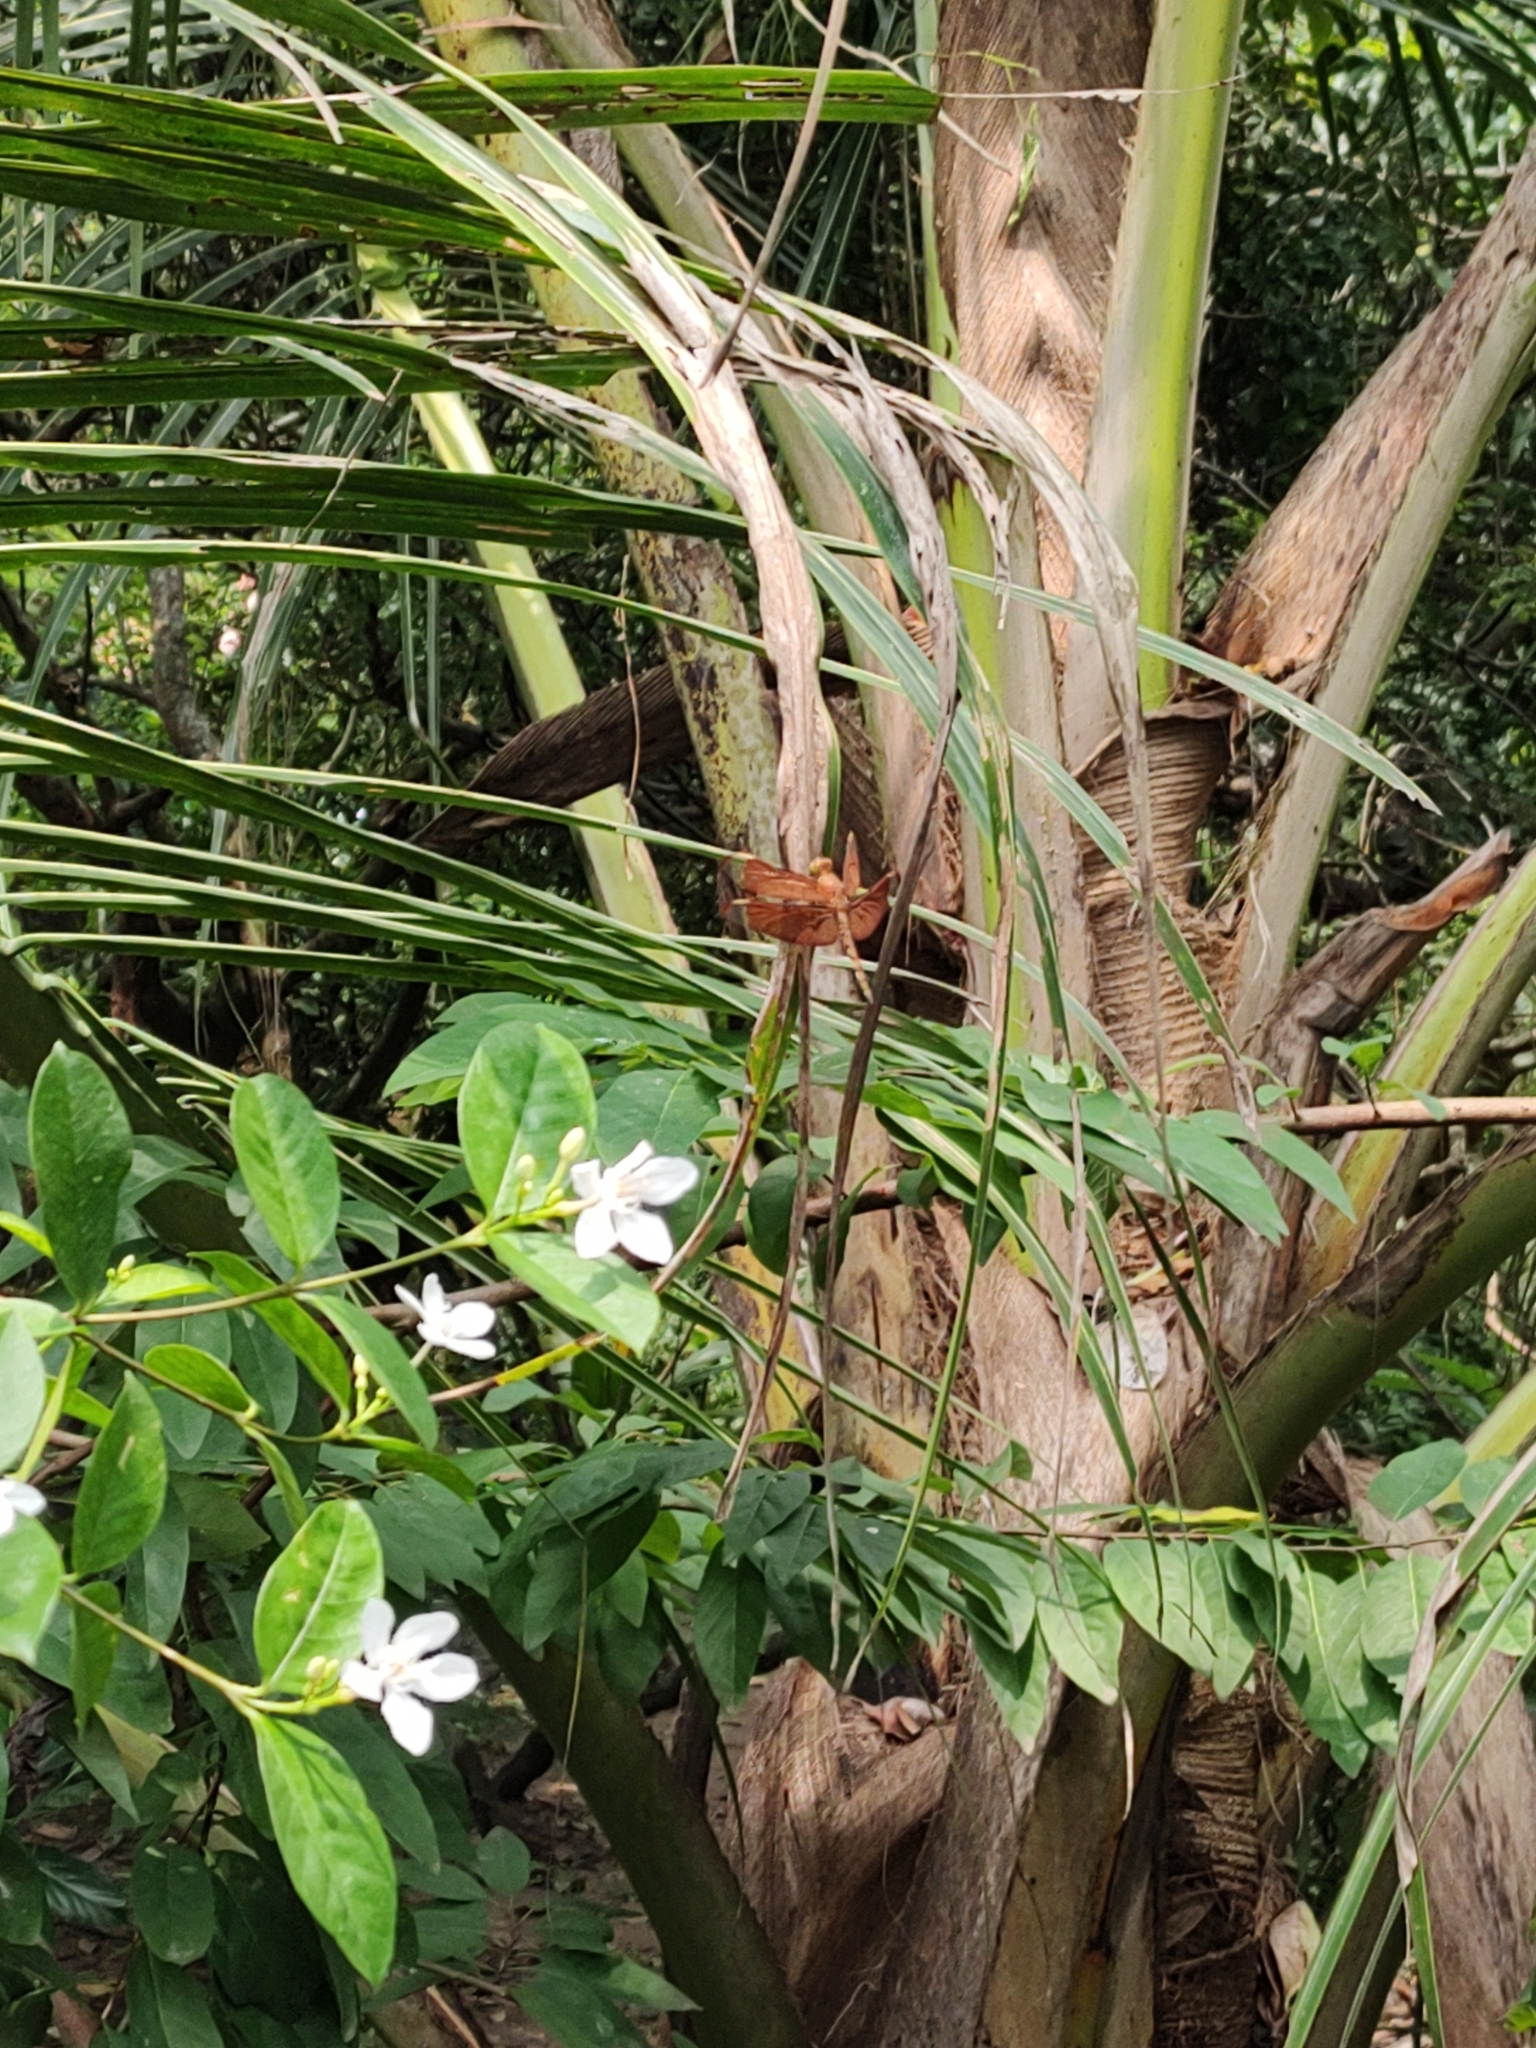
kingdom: Animalia
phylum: Arthropoda
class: Insecta
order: Odonata
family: Libellulidae
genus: Neurothemis
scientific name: Neurothemis fulvia
